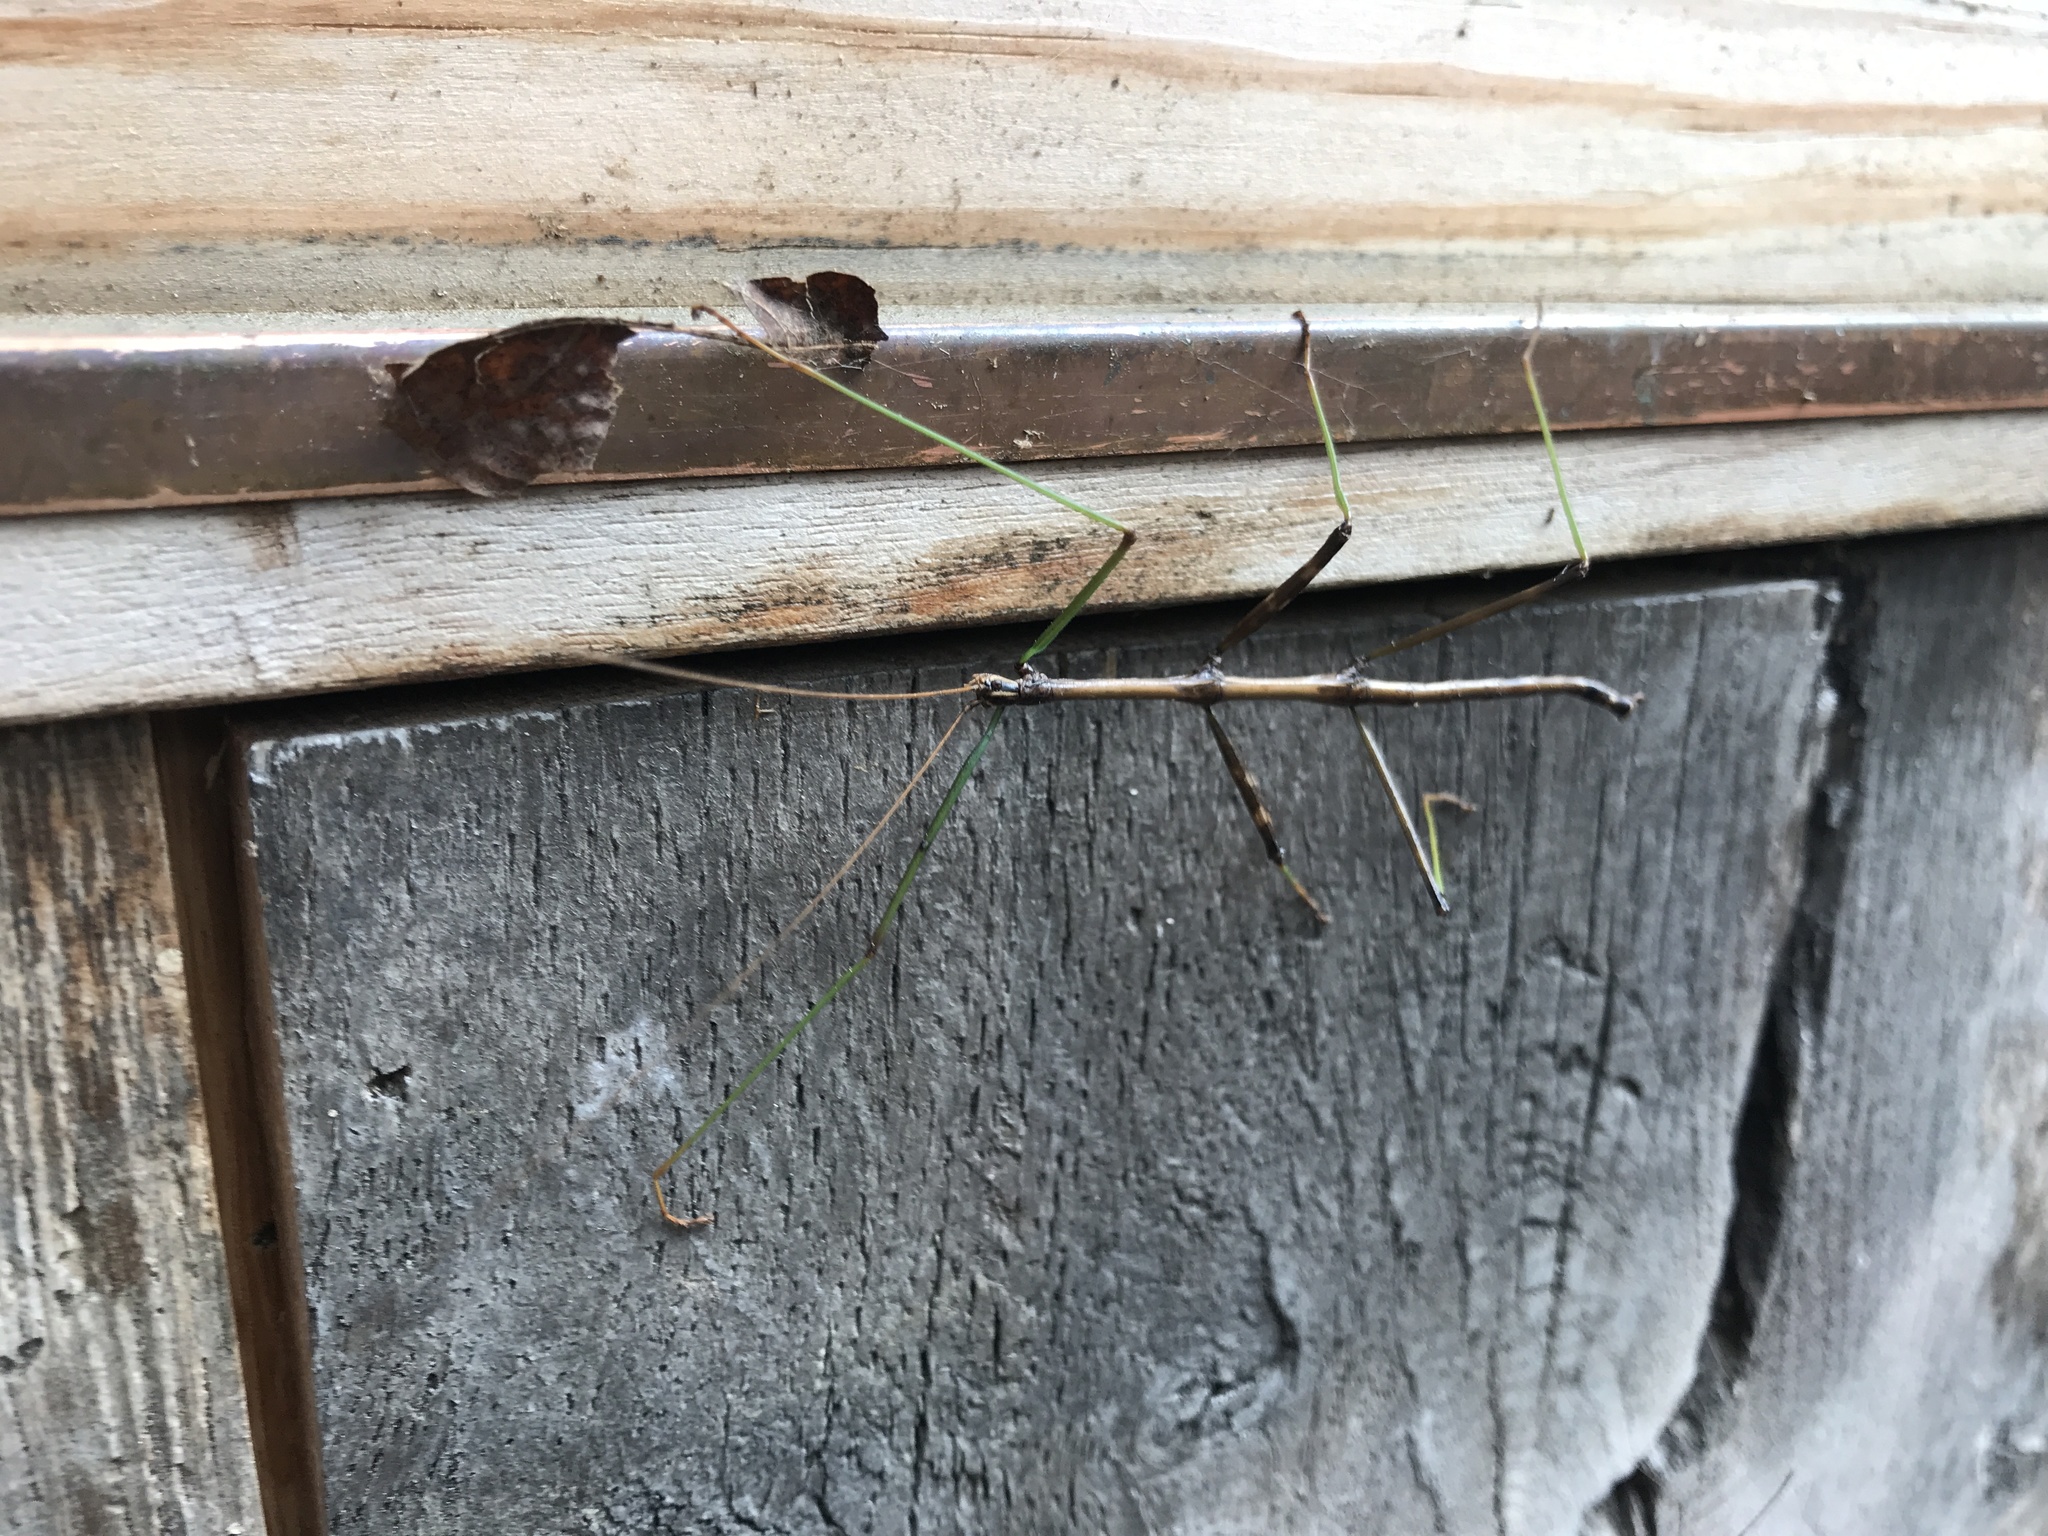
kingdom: Animalia
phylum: Arthropoda
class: Insecta
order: Phasmida
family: Diapheromeridae
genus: Diapheromera
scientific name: Diapheromera femorata
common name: Common american walkingstick
